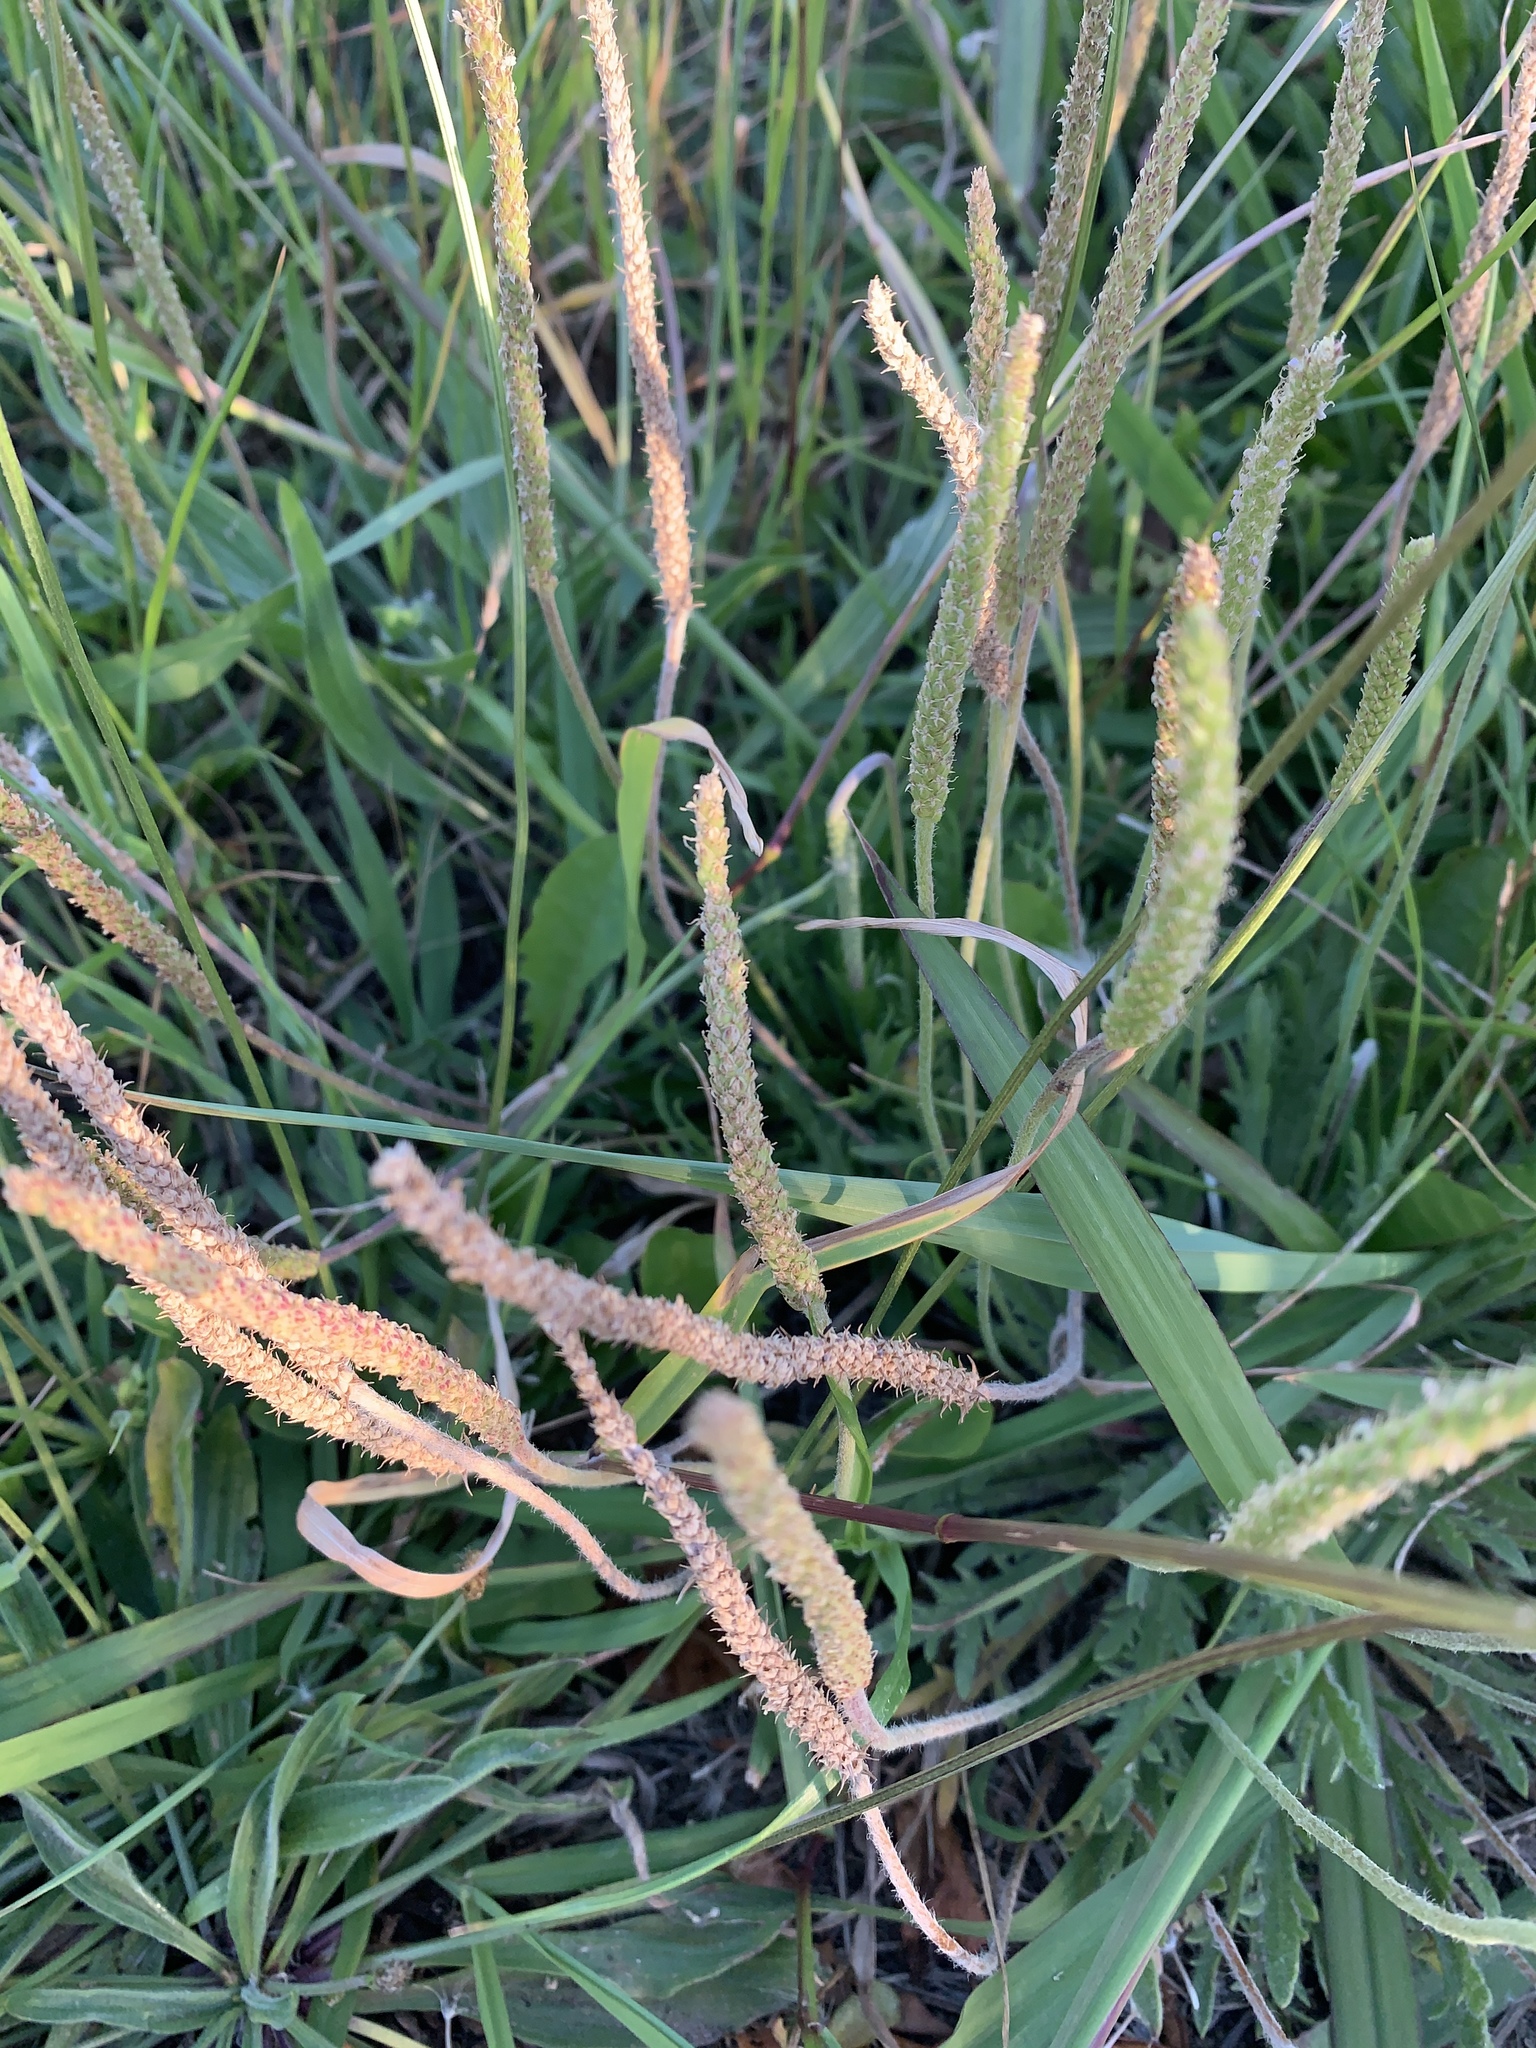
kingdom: Plantae
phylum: Tracheophyta
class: Magnoliopsida
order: Lamiales
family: Plantaginaceae
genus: Plantago
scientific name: Plantago coronopus
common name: Buck's-horn plantain
